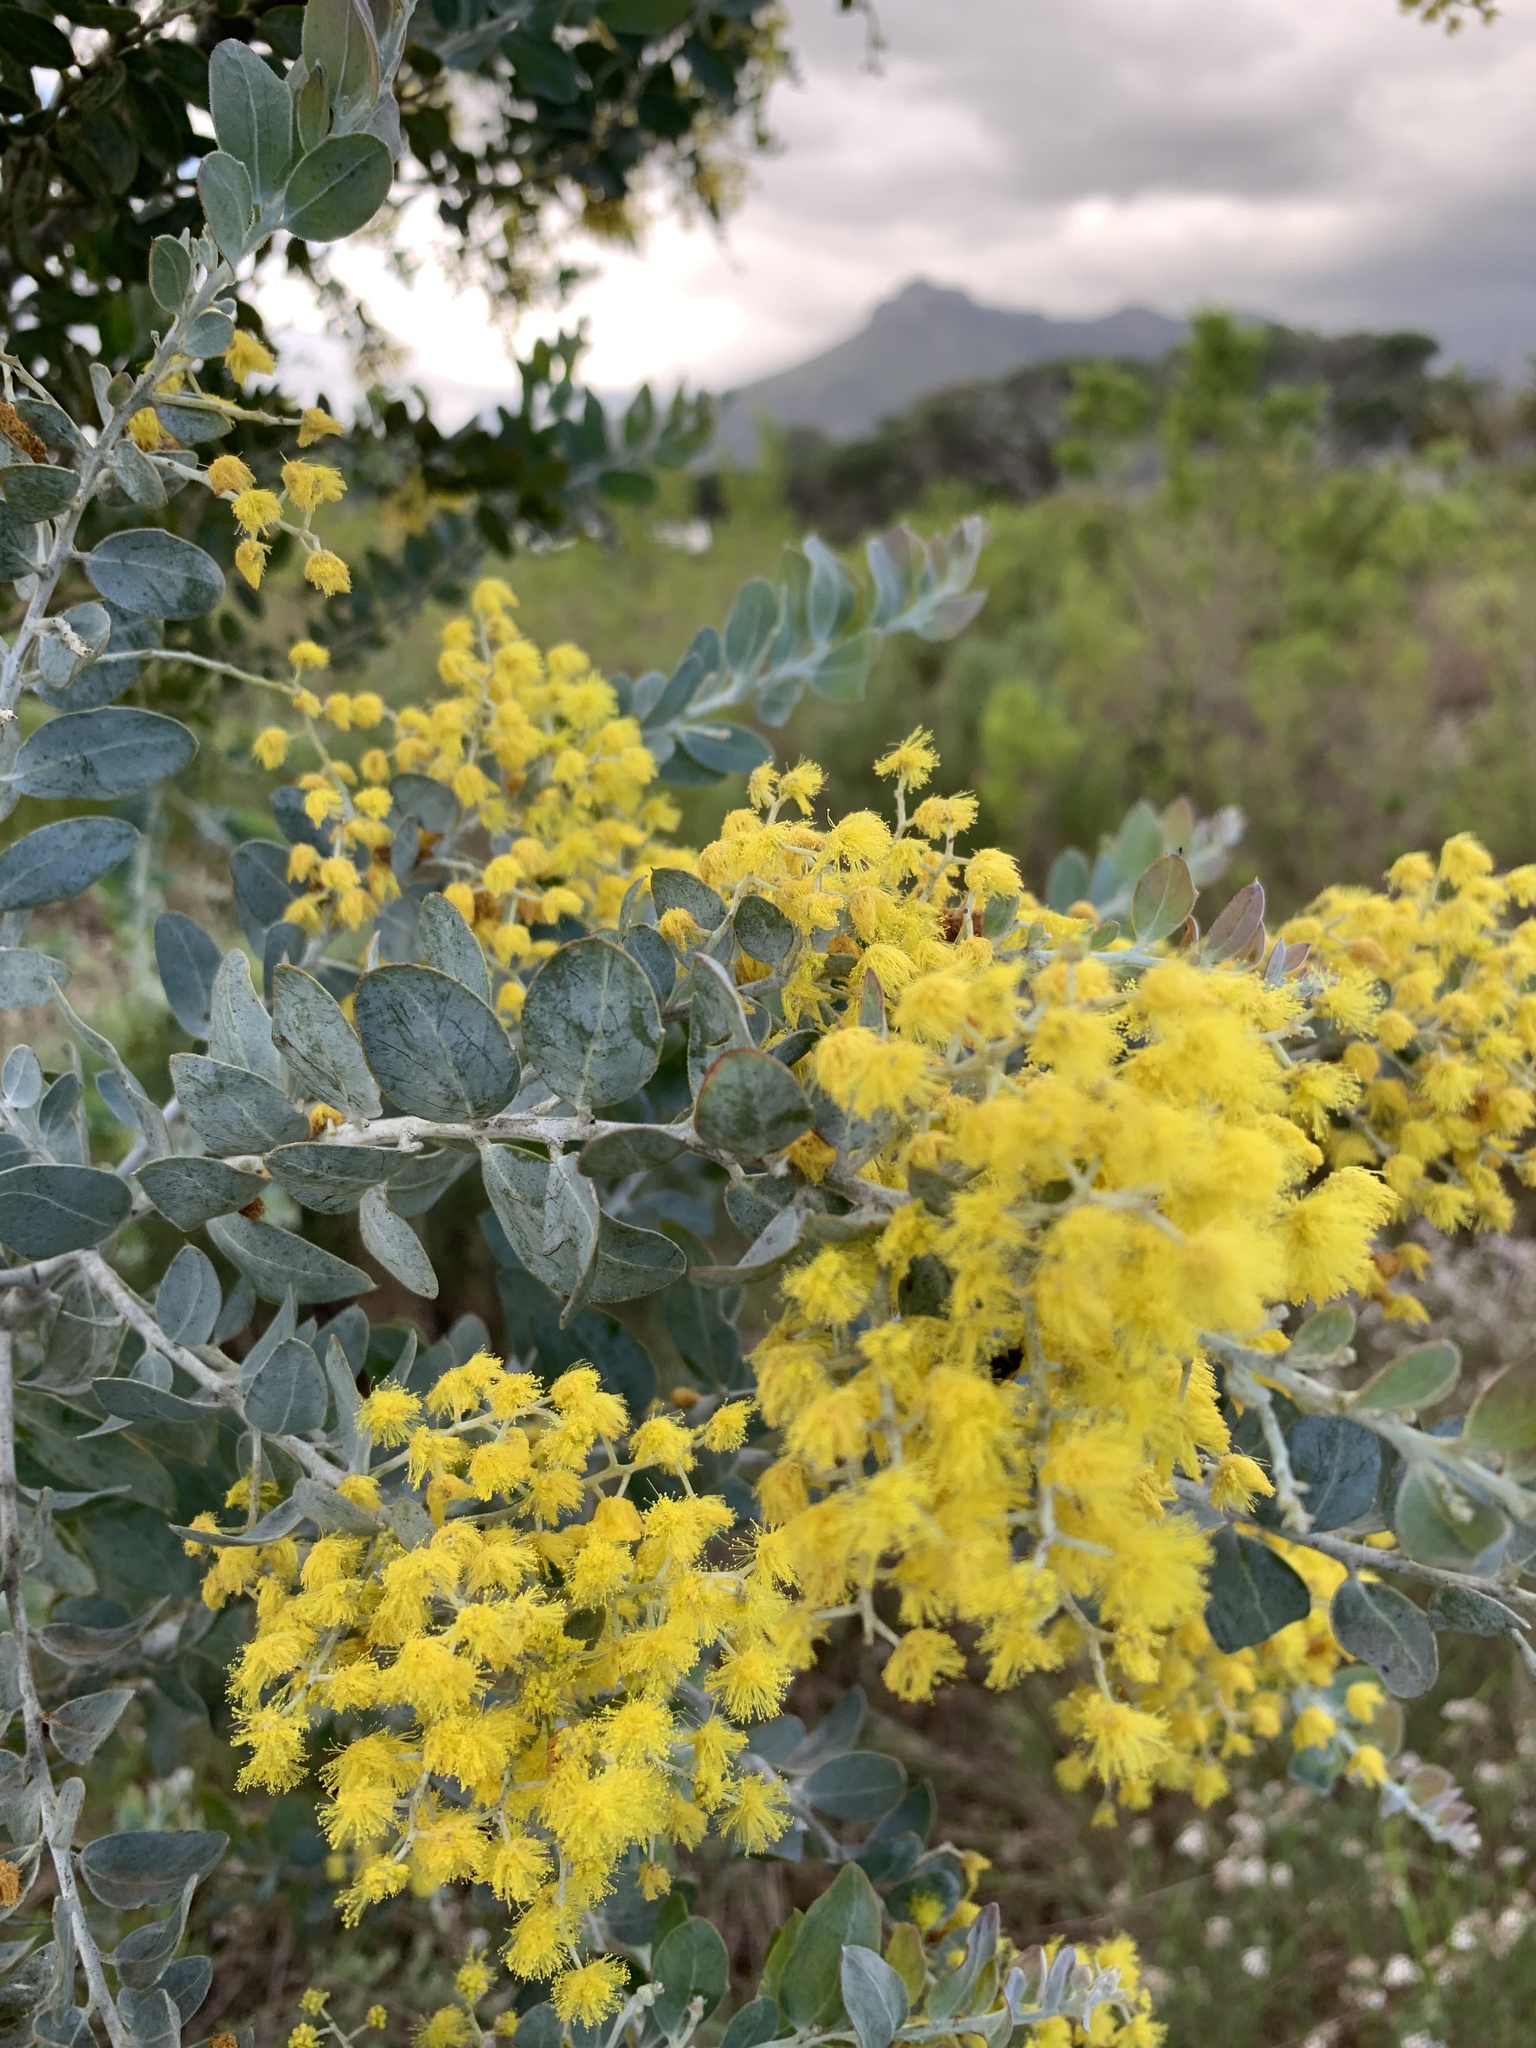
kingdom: Plantae
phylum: Tracheophyta
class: Magnoliopsida
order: Fabales
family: Fabaceae
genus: Acacia
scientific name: Acacia podalyriifolia
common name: Pearl wattle
